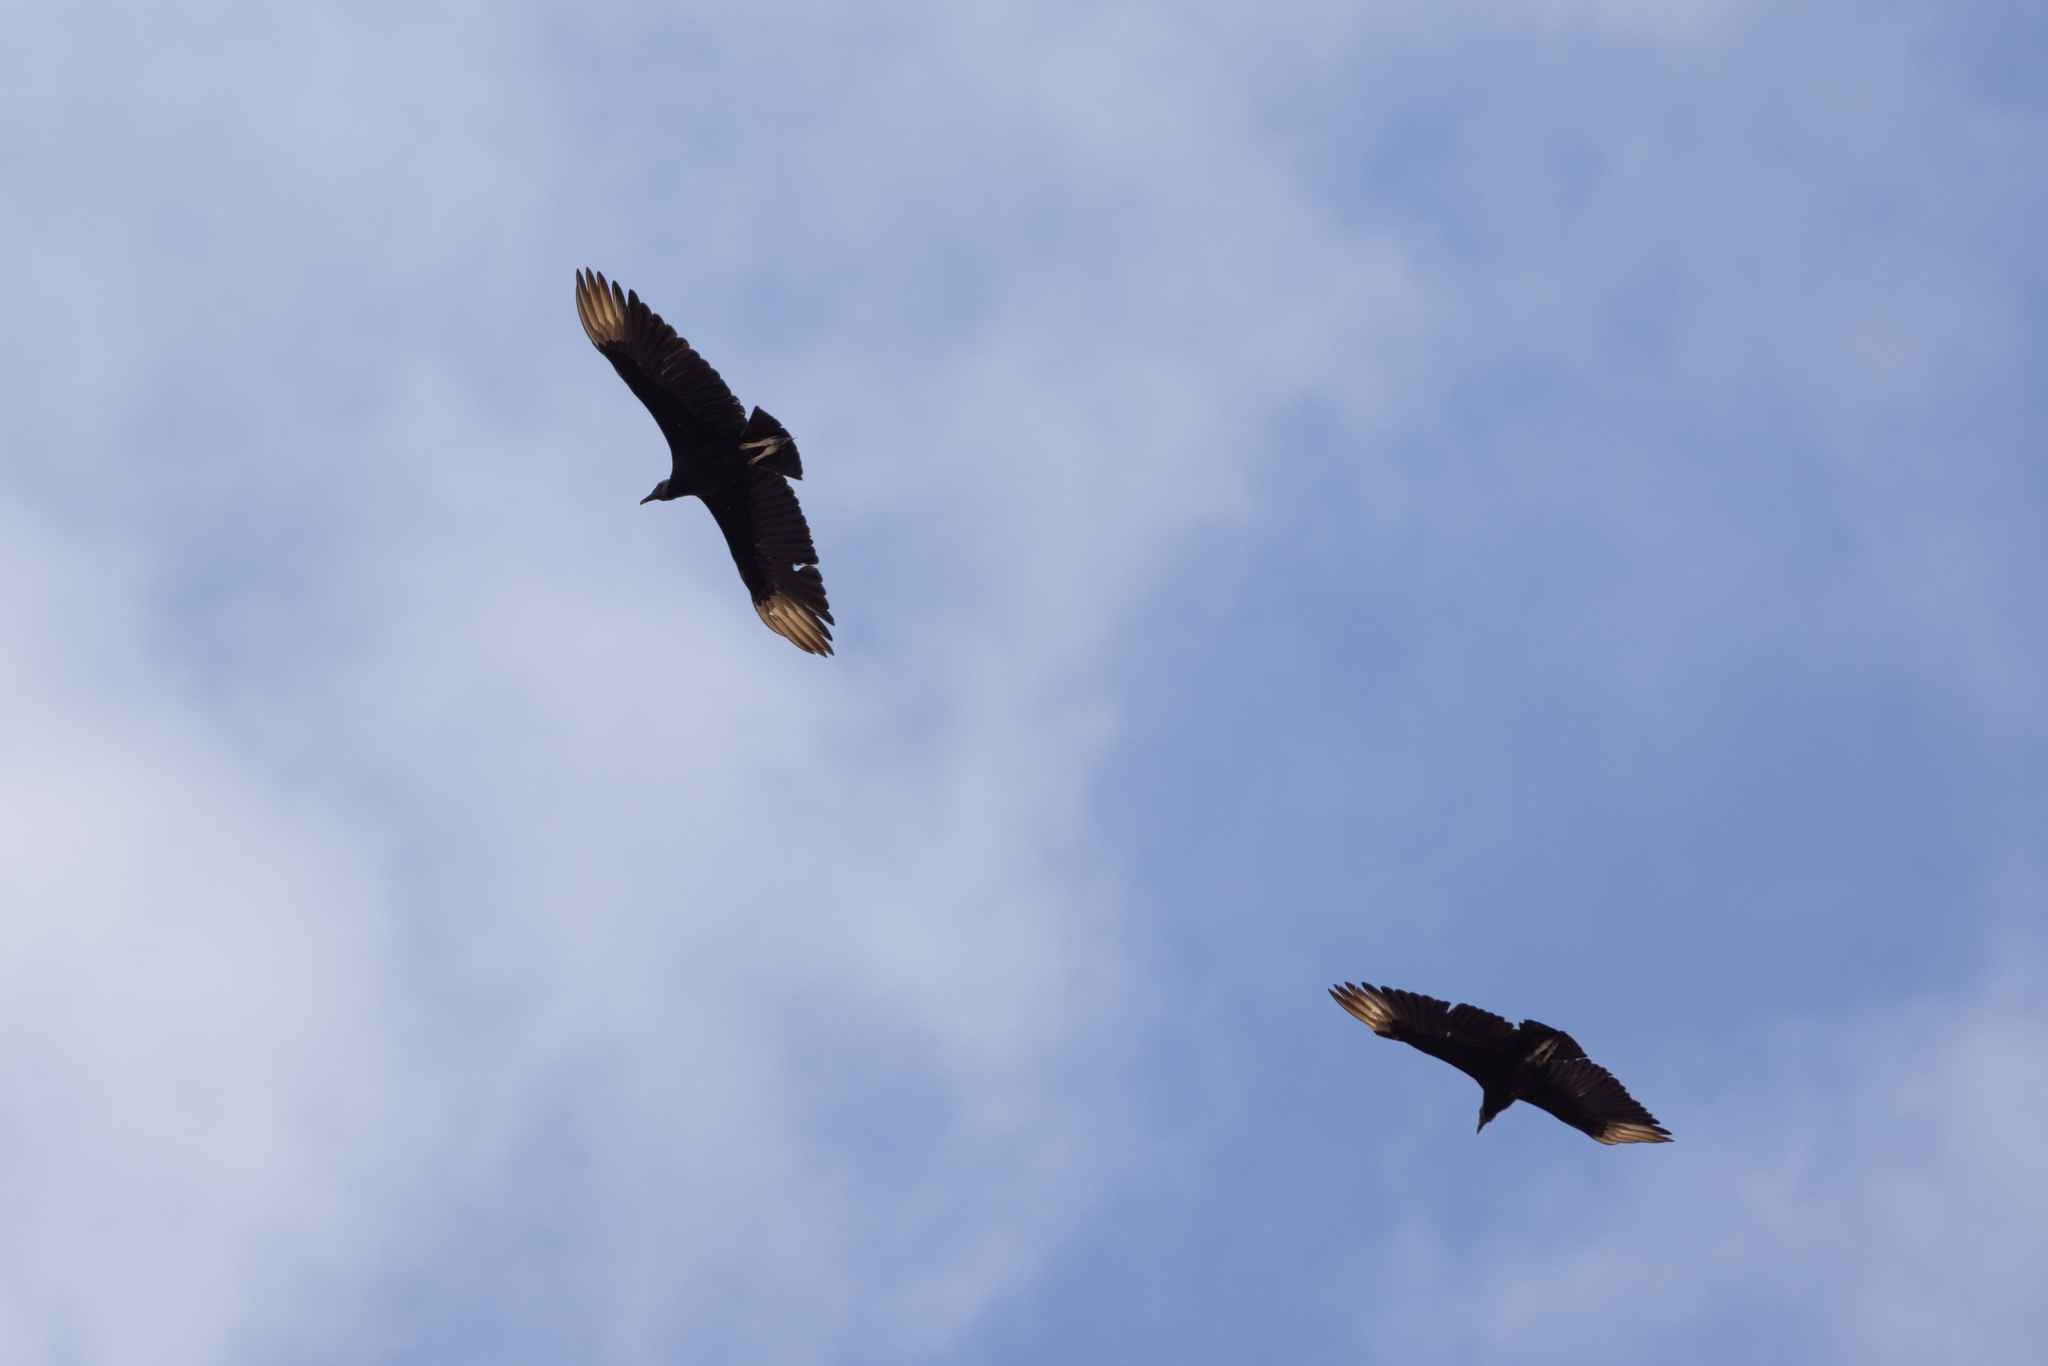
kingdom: Animalia
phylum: Chordata
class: Aves
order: Accipitriformes
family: Cathartidae
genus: Coragyps
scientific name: Coragyps atratus
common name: Black vulture
